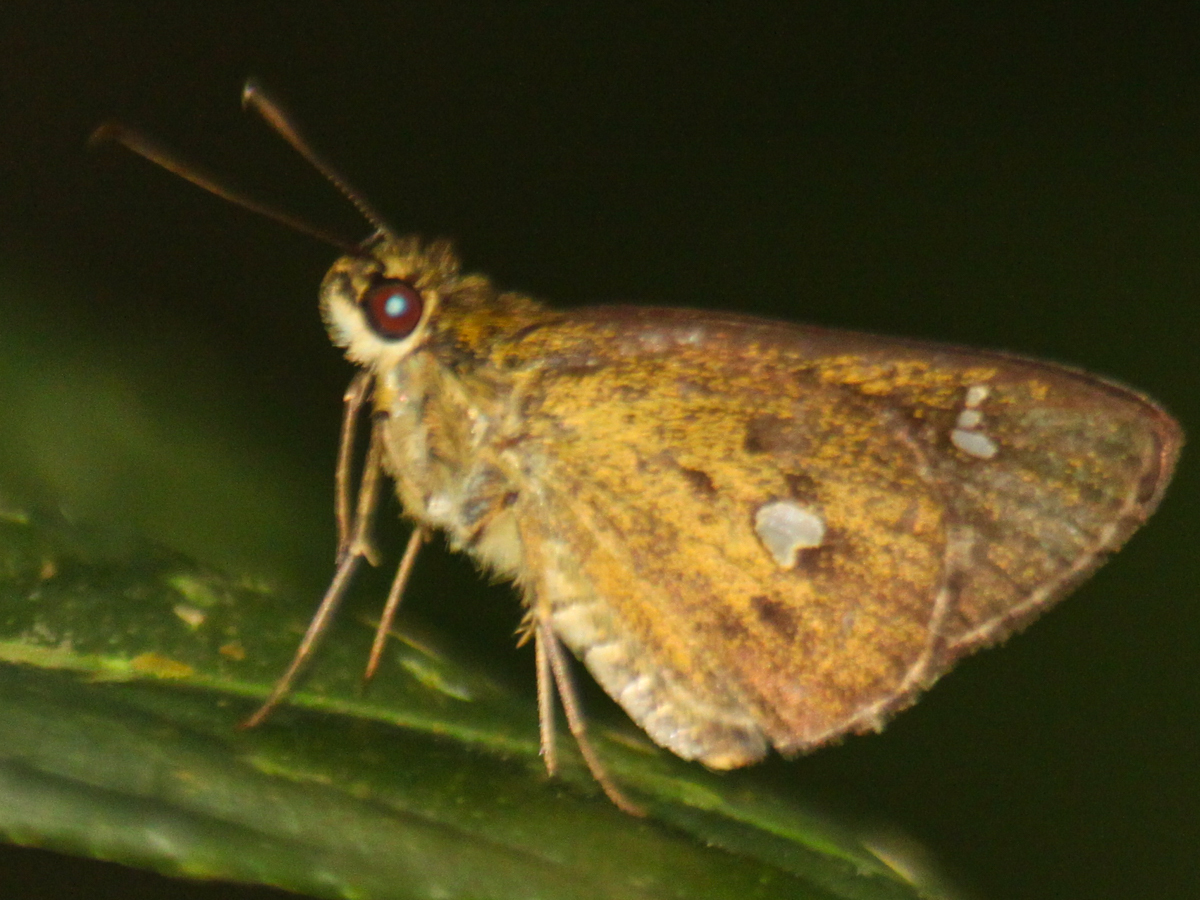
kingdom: Animalia
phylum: Arthropoda
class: Insecta
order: Lepidoptera
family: Hesperiidae
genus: Scobura
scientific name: Scobura phiditia
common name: Malay forest bob
